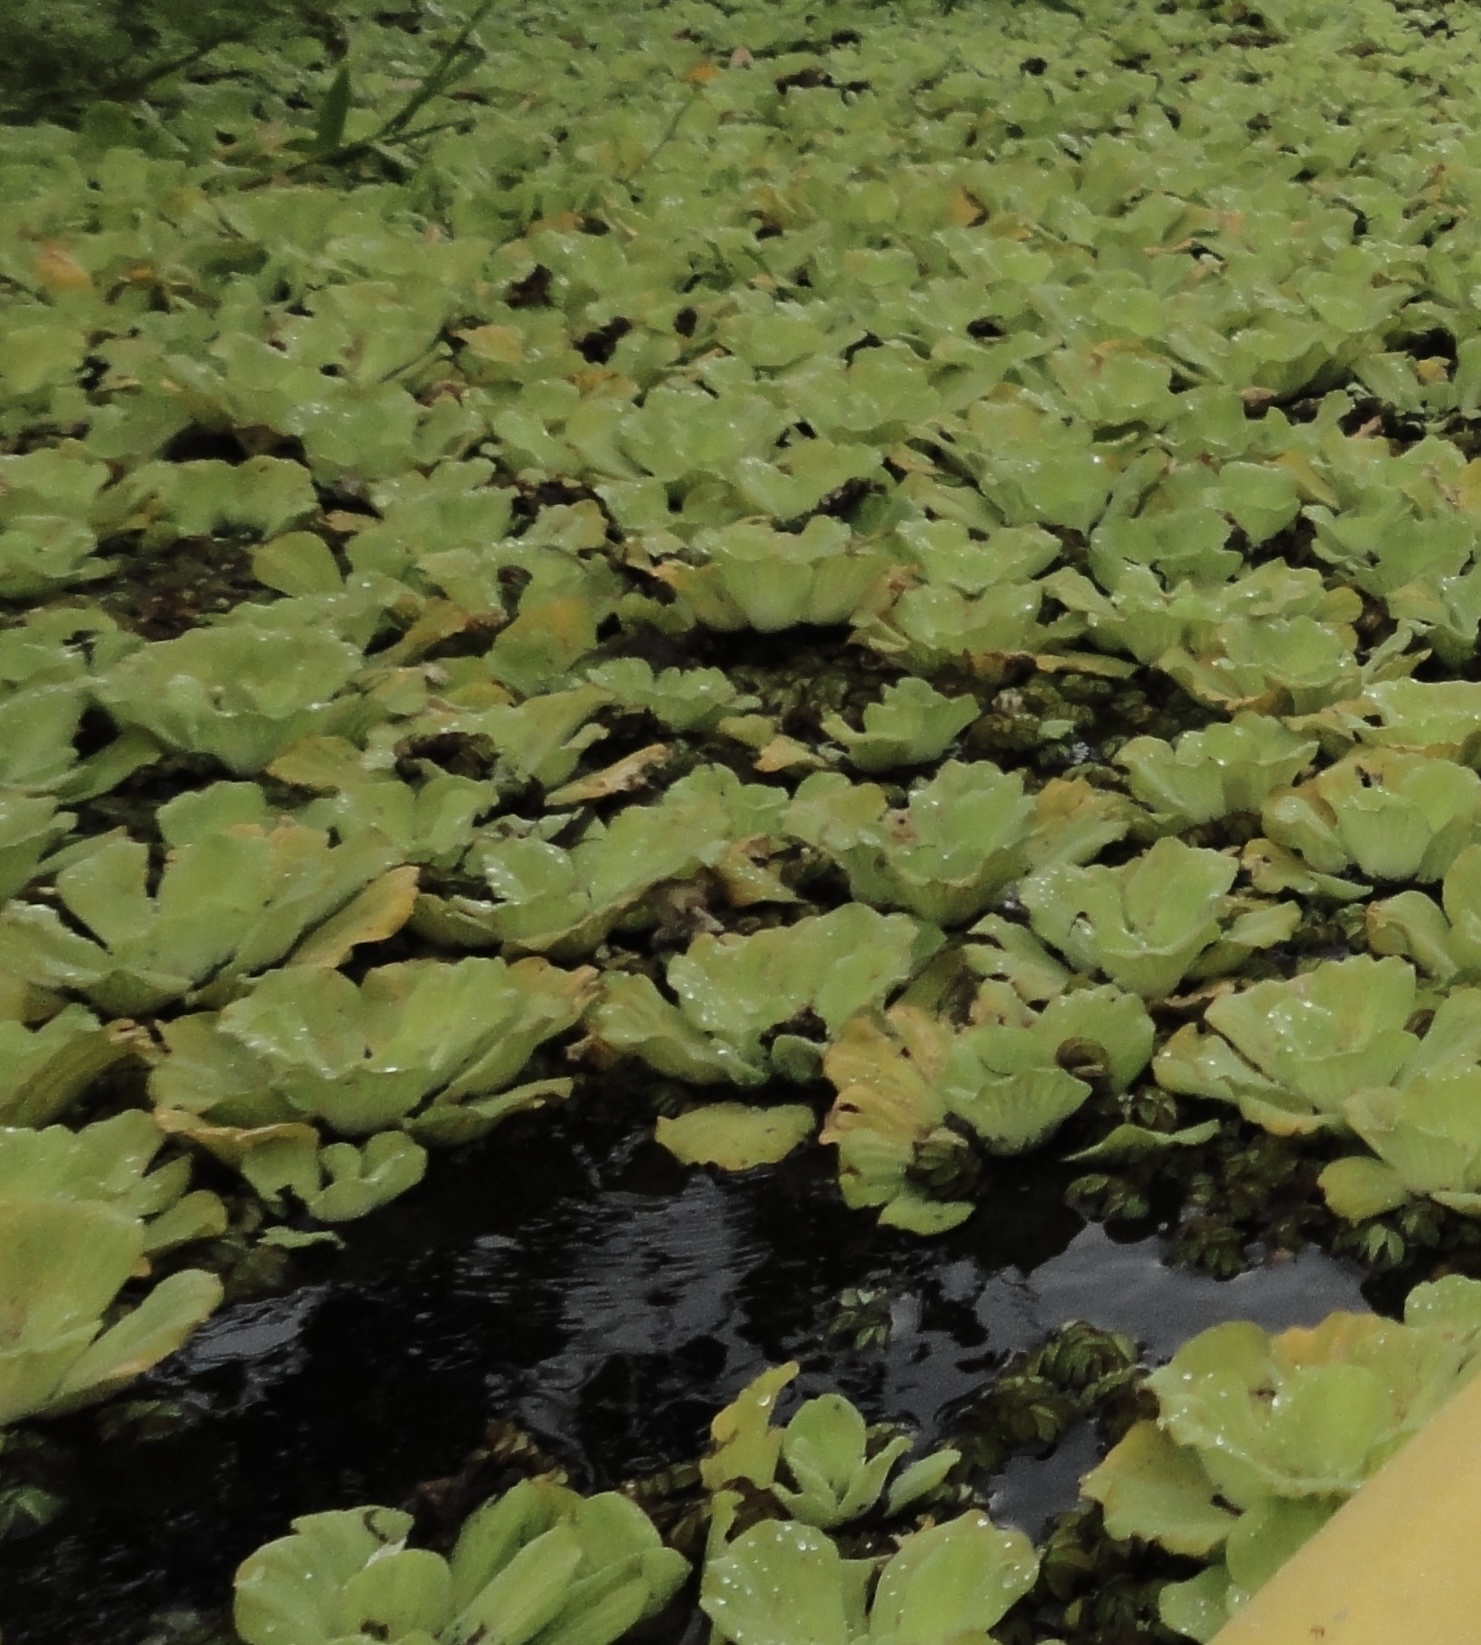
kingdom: Plantae
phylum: Tracheophyta
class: Liliopsida
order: Alismatales
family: Araceae
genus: Pistia
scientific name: Pistia stratiotes
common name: Water lettuce
